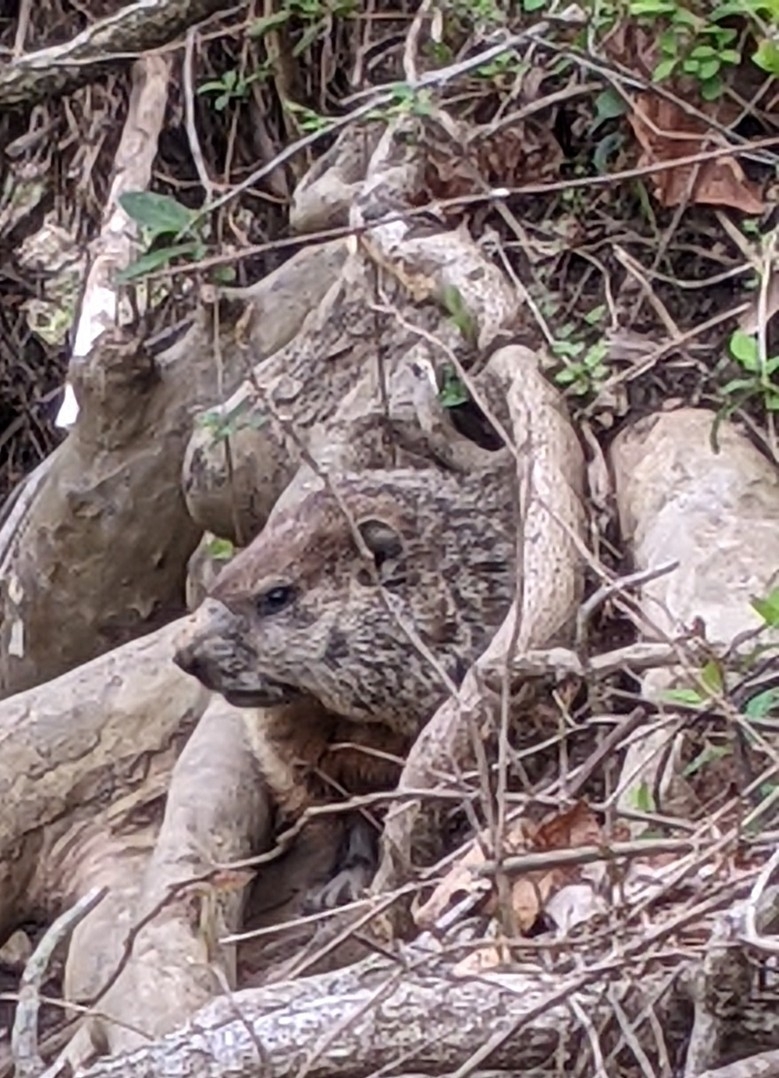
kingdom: Animalia
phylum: Chordata
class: Mammalia
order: Rodentia
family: Sciuridae
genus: Marmota
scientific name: Marmota monax
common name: Groundhog
